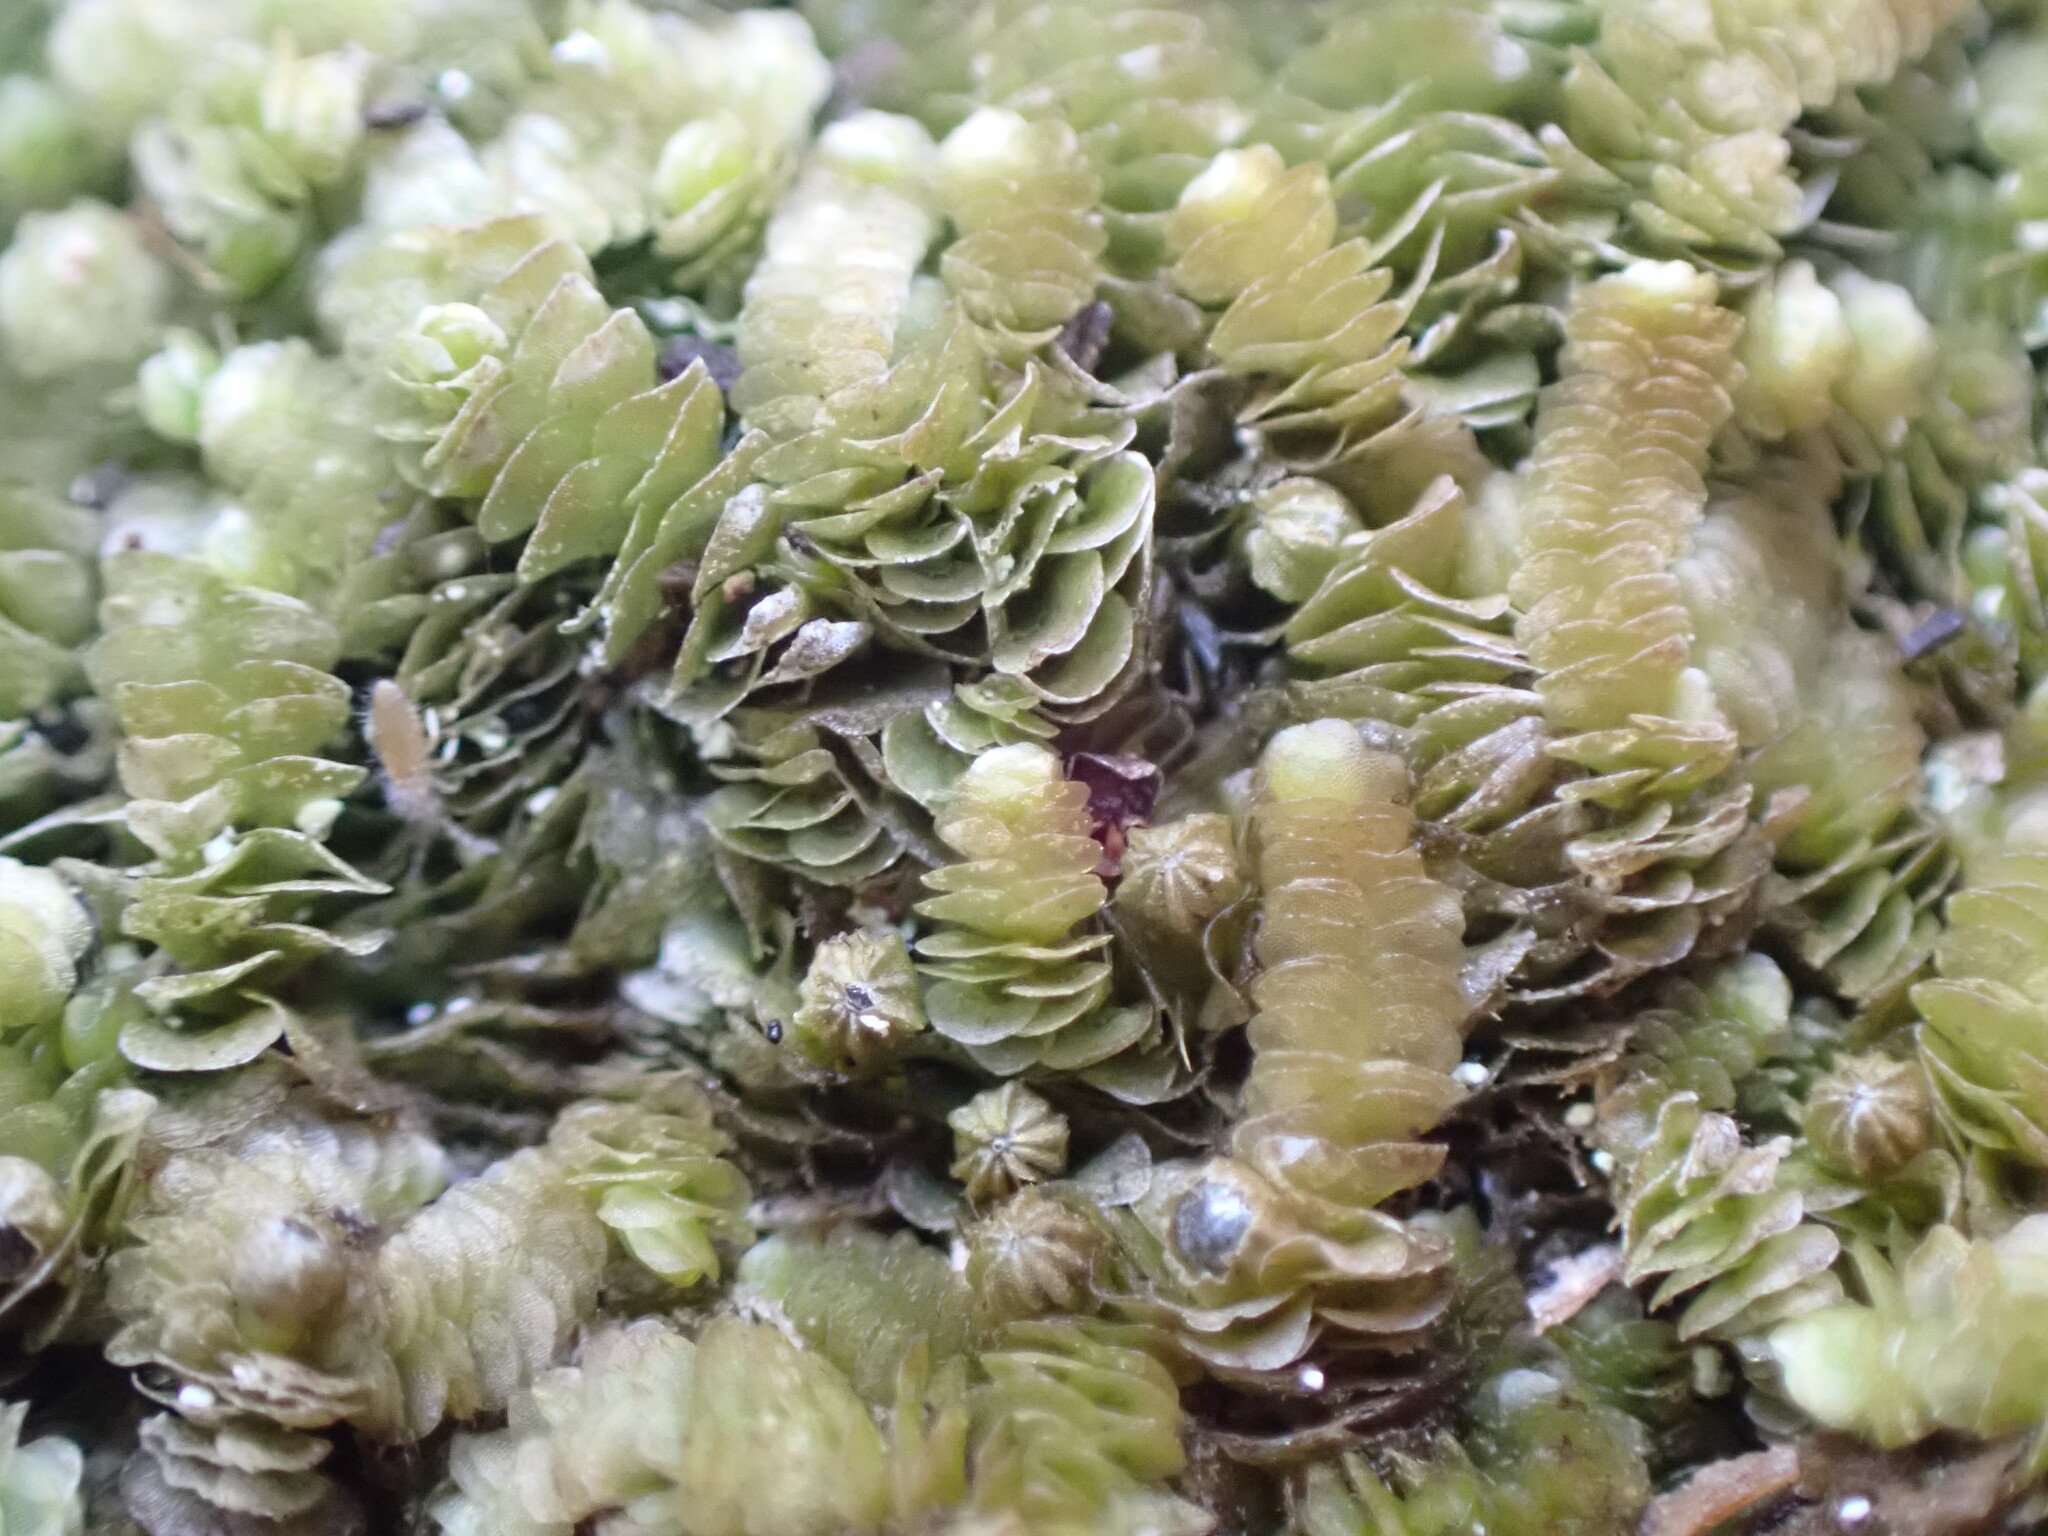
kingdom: Plantae
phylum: Marchantiophyta
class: Jungermanniopsida
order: Porellales
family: Lejeuneaceae
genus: Acrolejeunea
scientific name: Acrolejeunea sandvicensis
